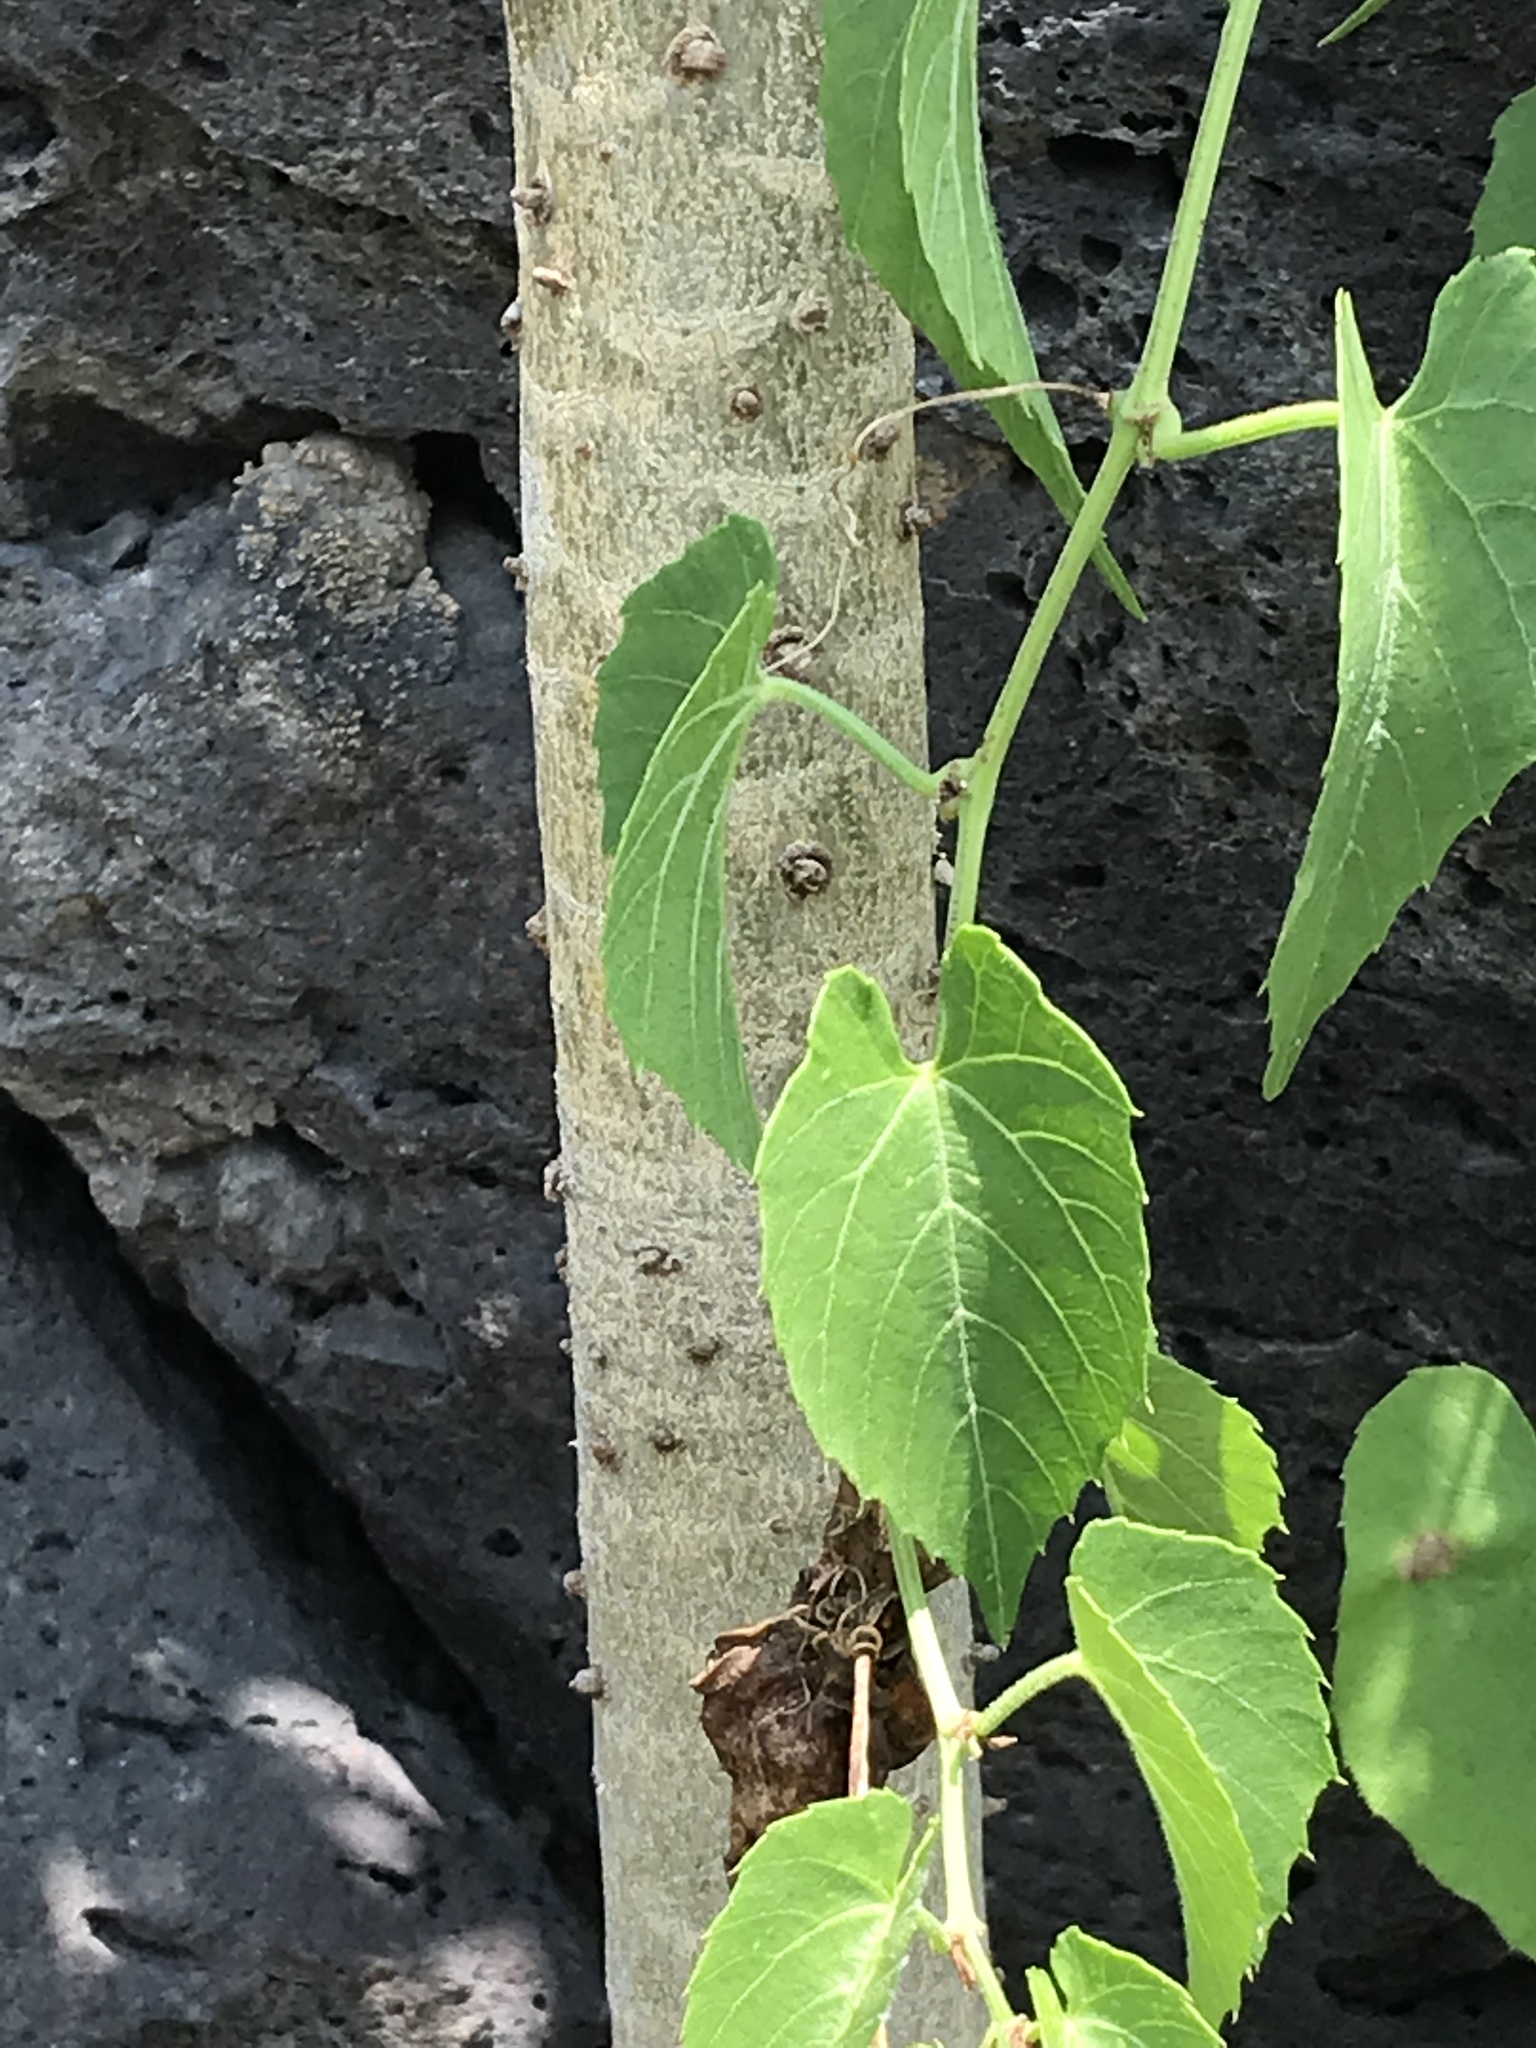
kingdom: Plantae
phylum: Tracheophyta
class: Magnoliopsida
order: Asterales
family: Asteraceae
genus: Pittocaulon
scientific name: Pittocaulon praecox
